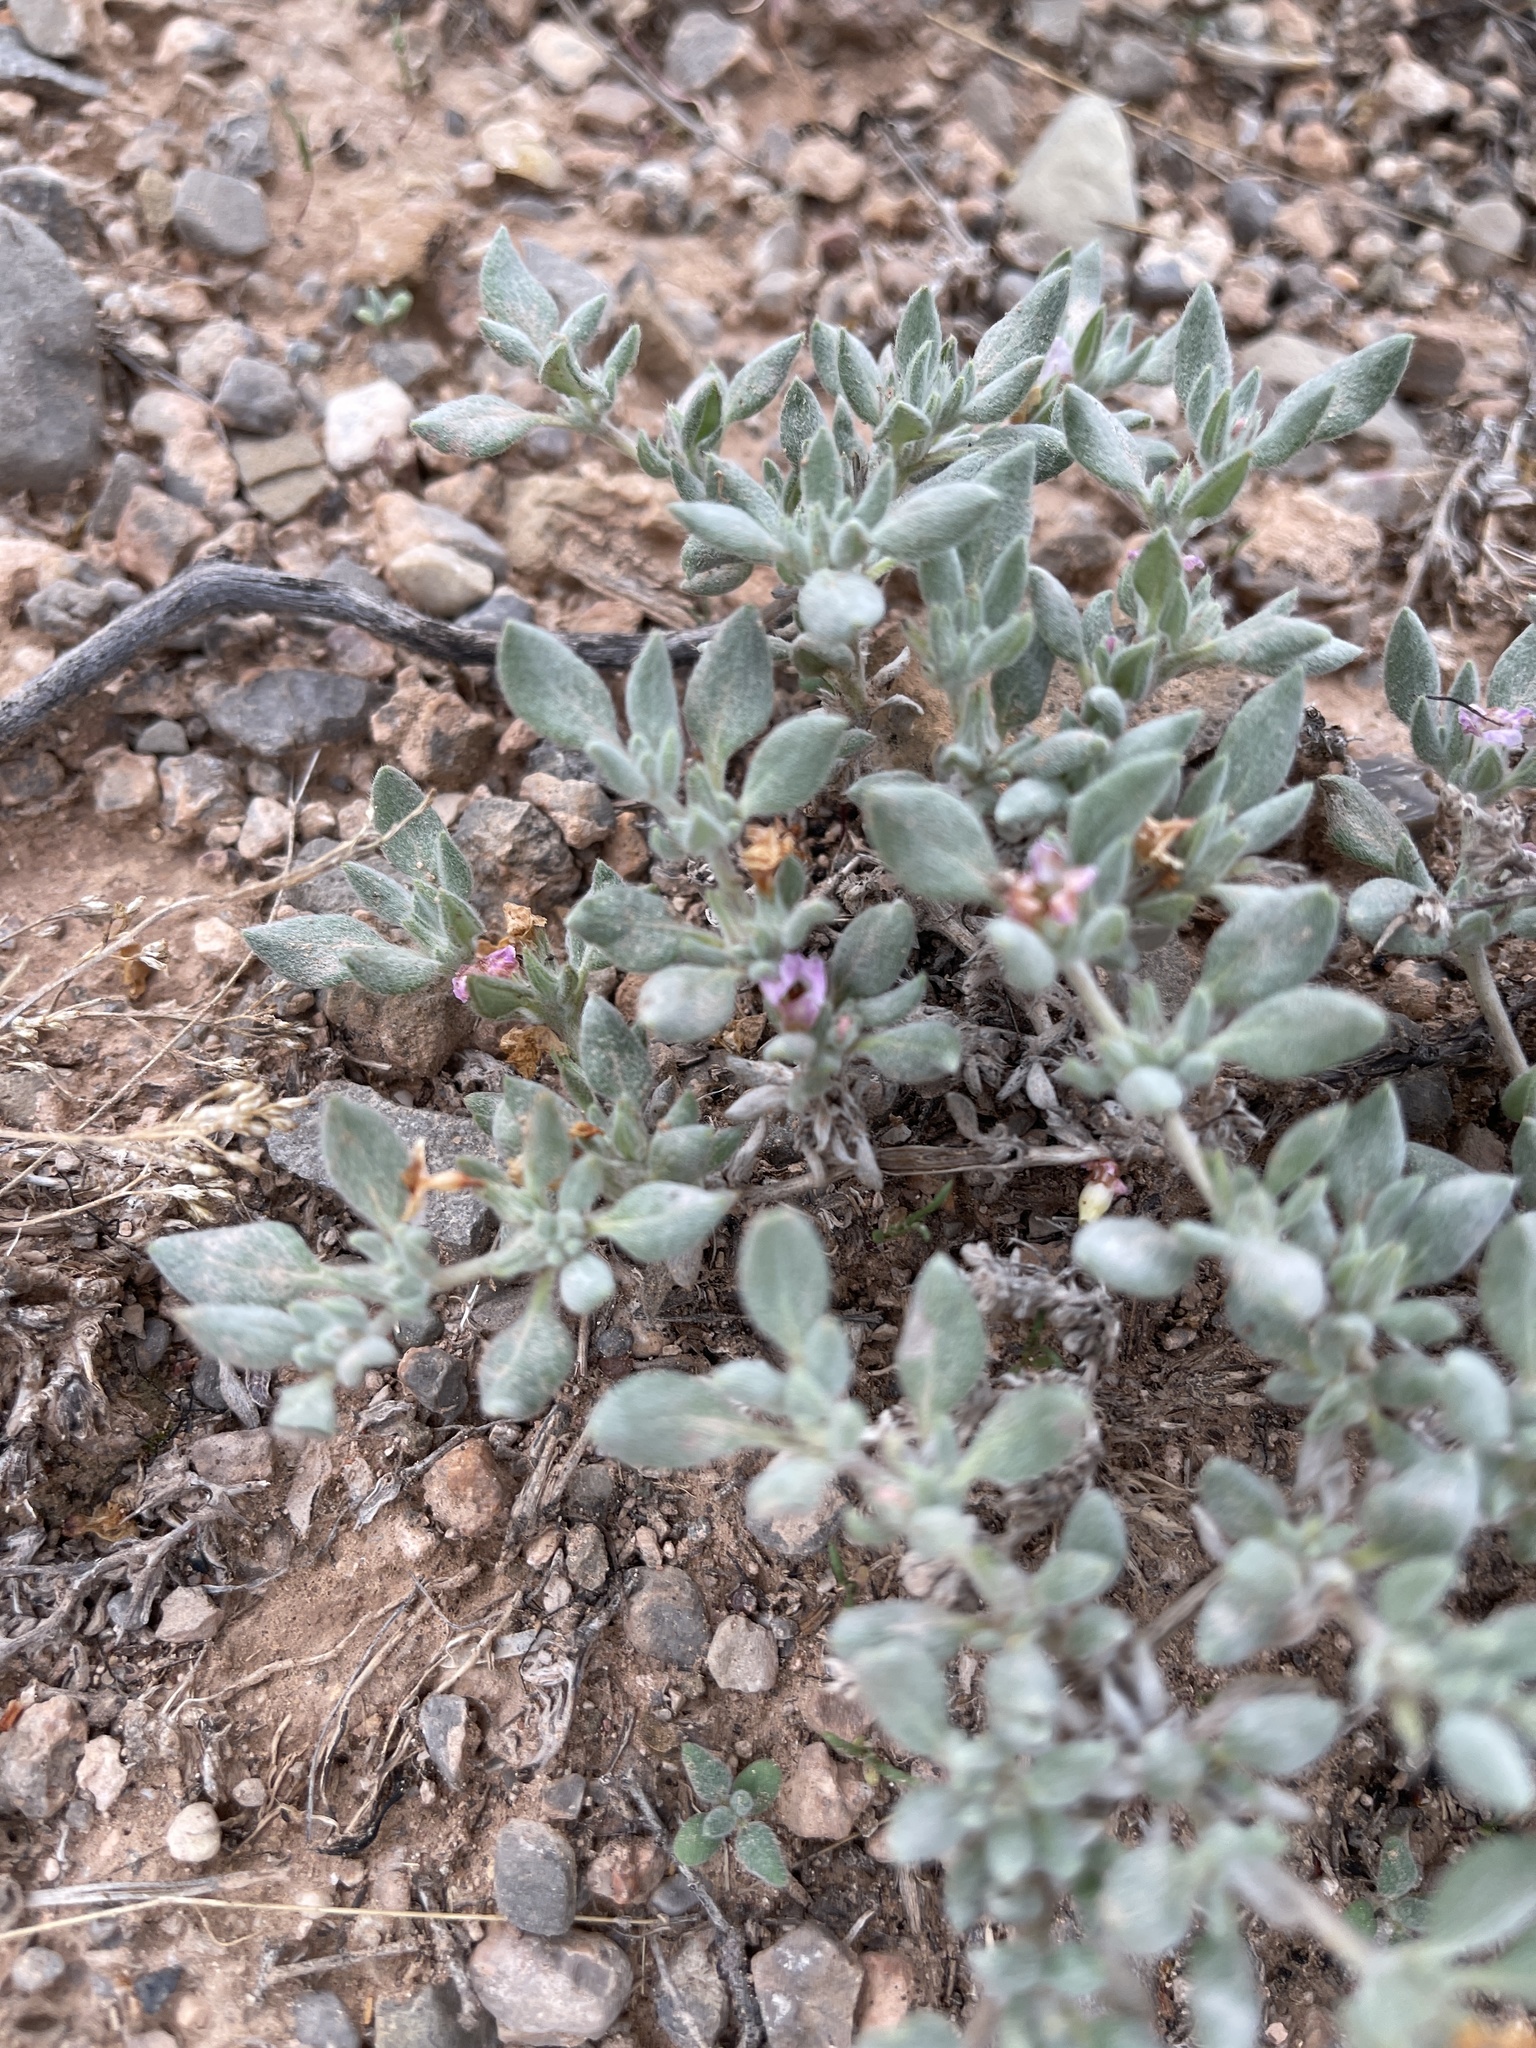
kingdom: Plantae
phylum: Tracheophyta
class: Magnoliopsida
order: Boraginales
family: Ehretiaceae
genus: Tiquilia
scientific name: Tiquilia canescens
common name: Hairy tiquilia
